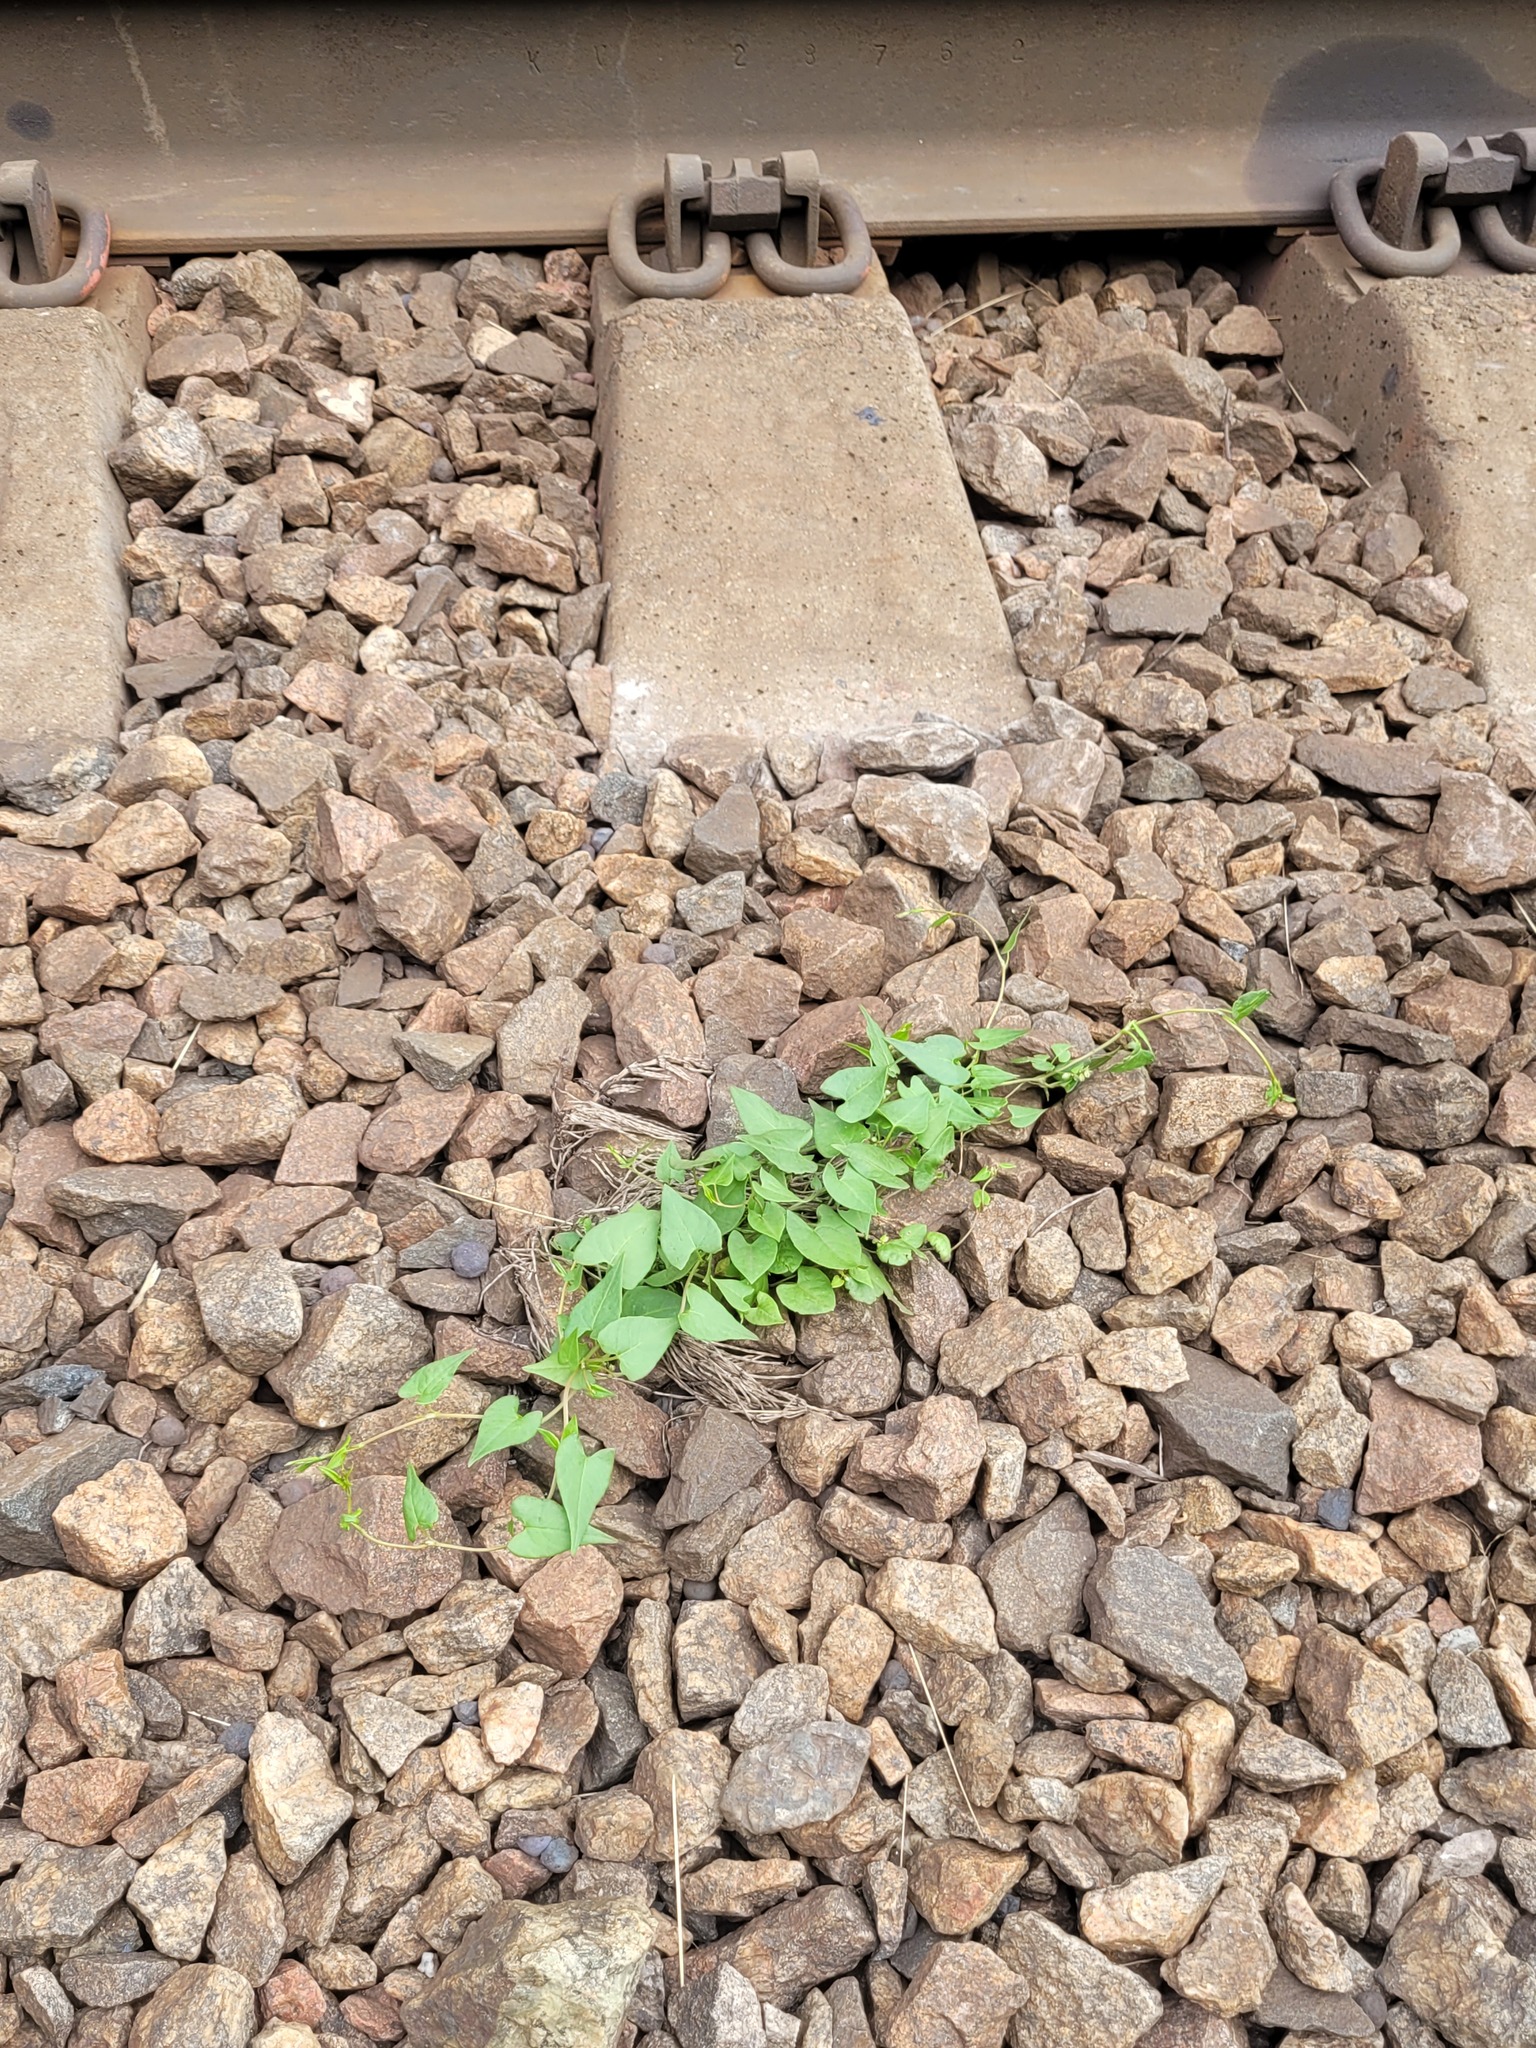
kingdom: Plantae
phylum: Tracheophyta
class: Magnoliopsida
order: Caryophyllales
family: Polygonaceae
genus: Fallopia
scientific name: Fallopia convolvulus
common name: Black bindweed
